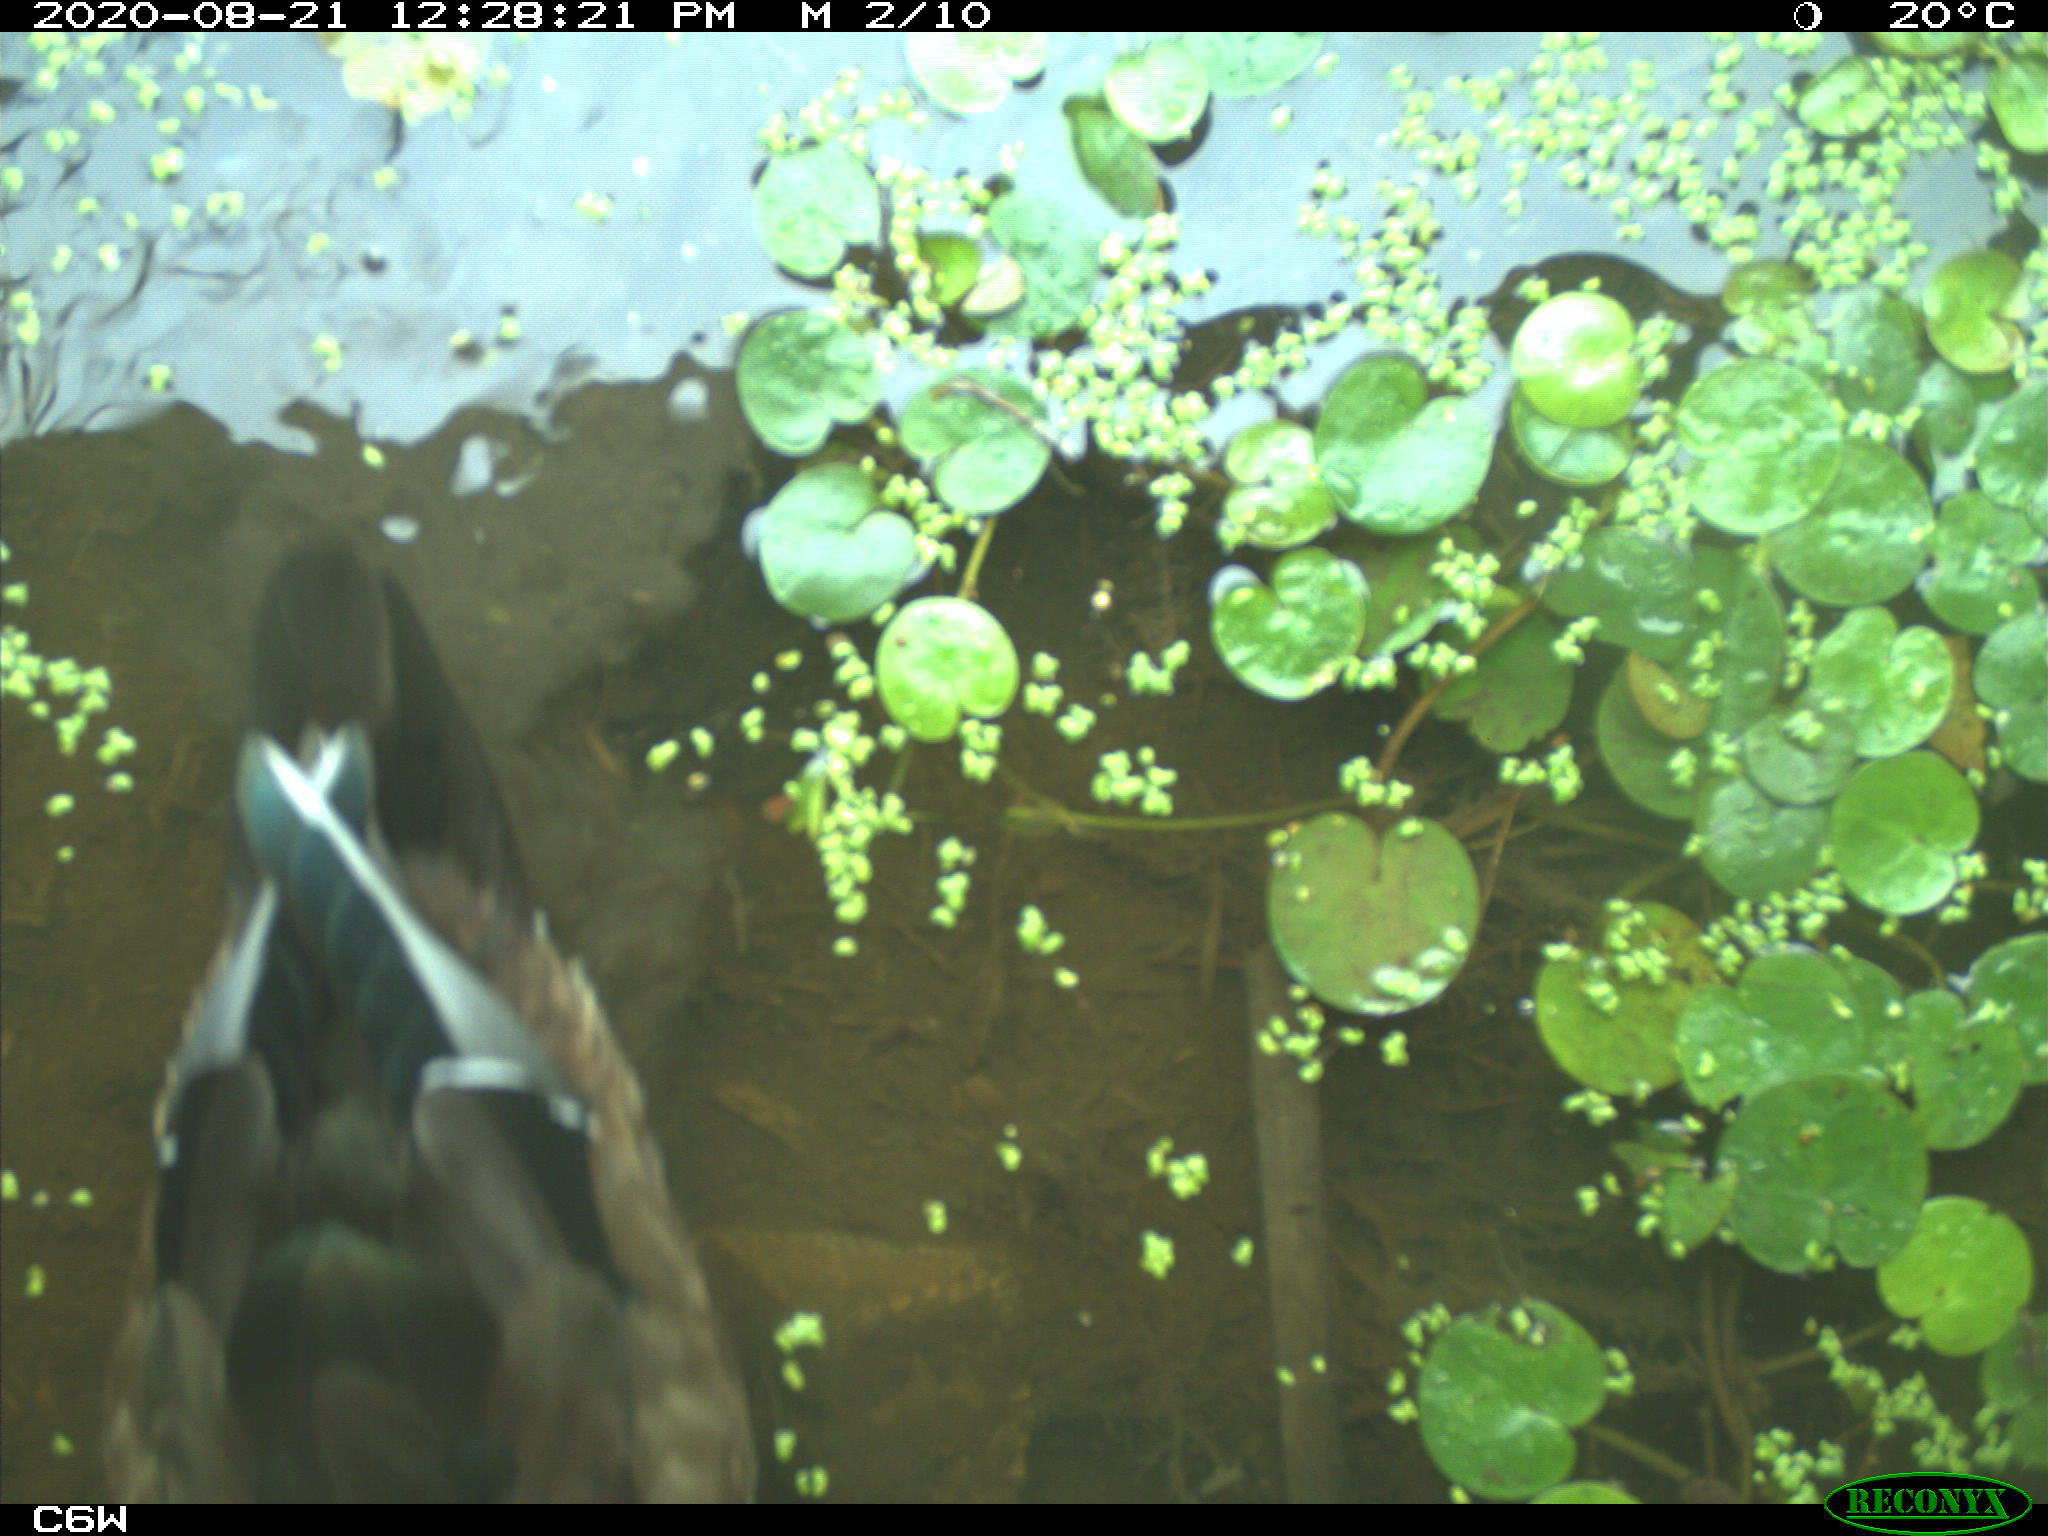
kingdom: Animalia
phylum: Chordata
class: Aves
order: Anseriformes
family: Anatidae
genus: Aix
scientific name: Aix sponsa
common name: Wood duck
